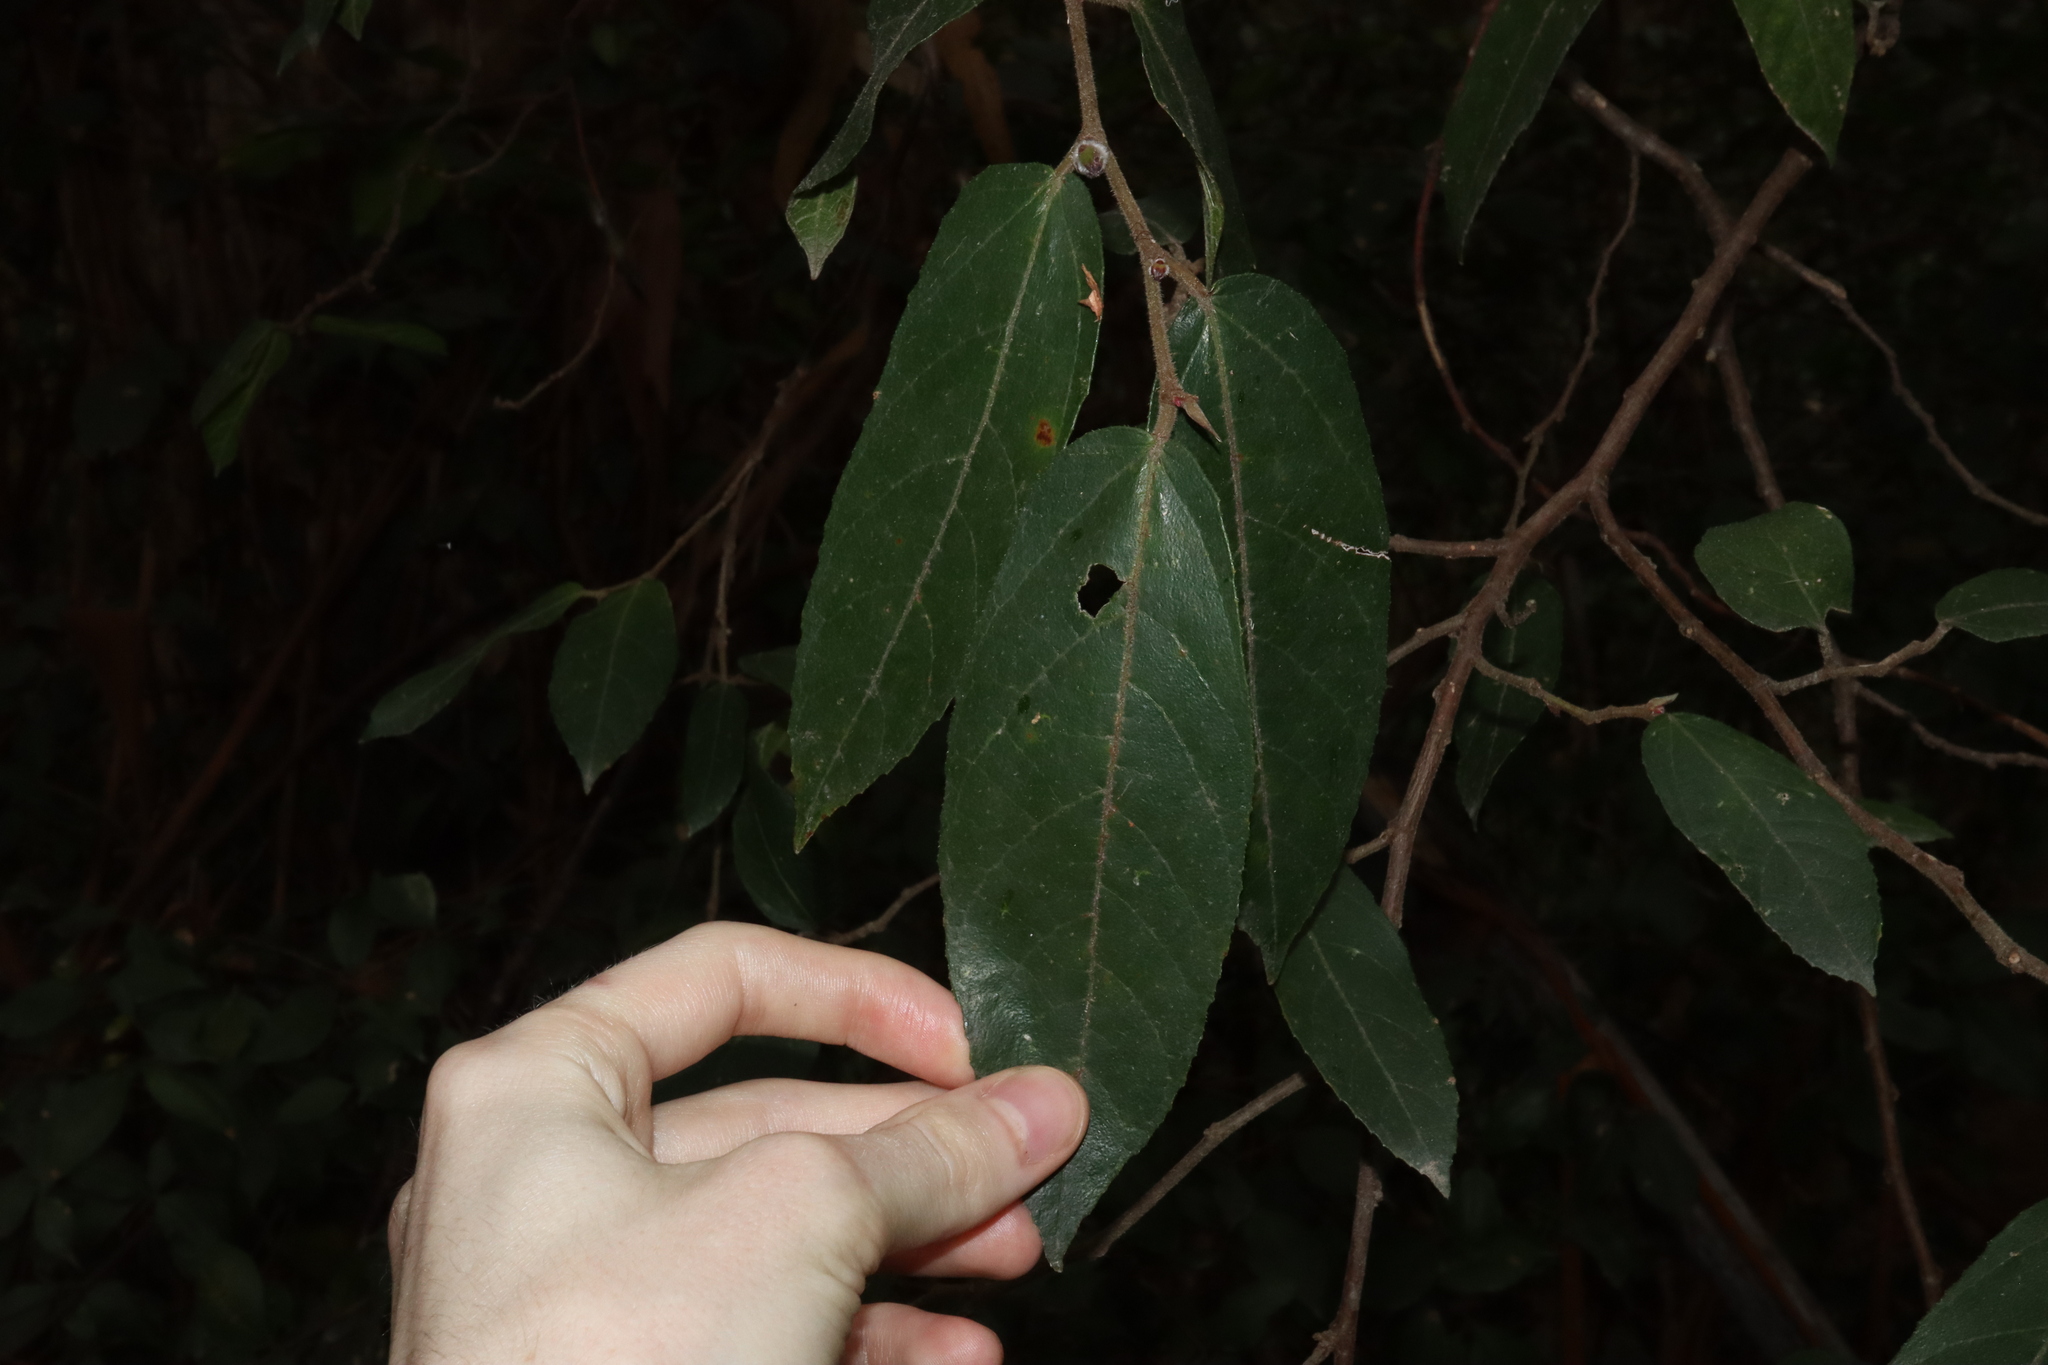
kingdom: Plantae
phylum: Tracheophyta
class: Magnoliopsida
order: Rosales
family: Moraceae
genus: Ficus
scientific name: Ficus coronata
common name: Creek sandpaper fig
